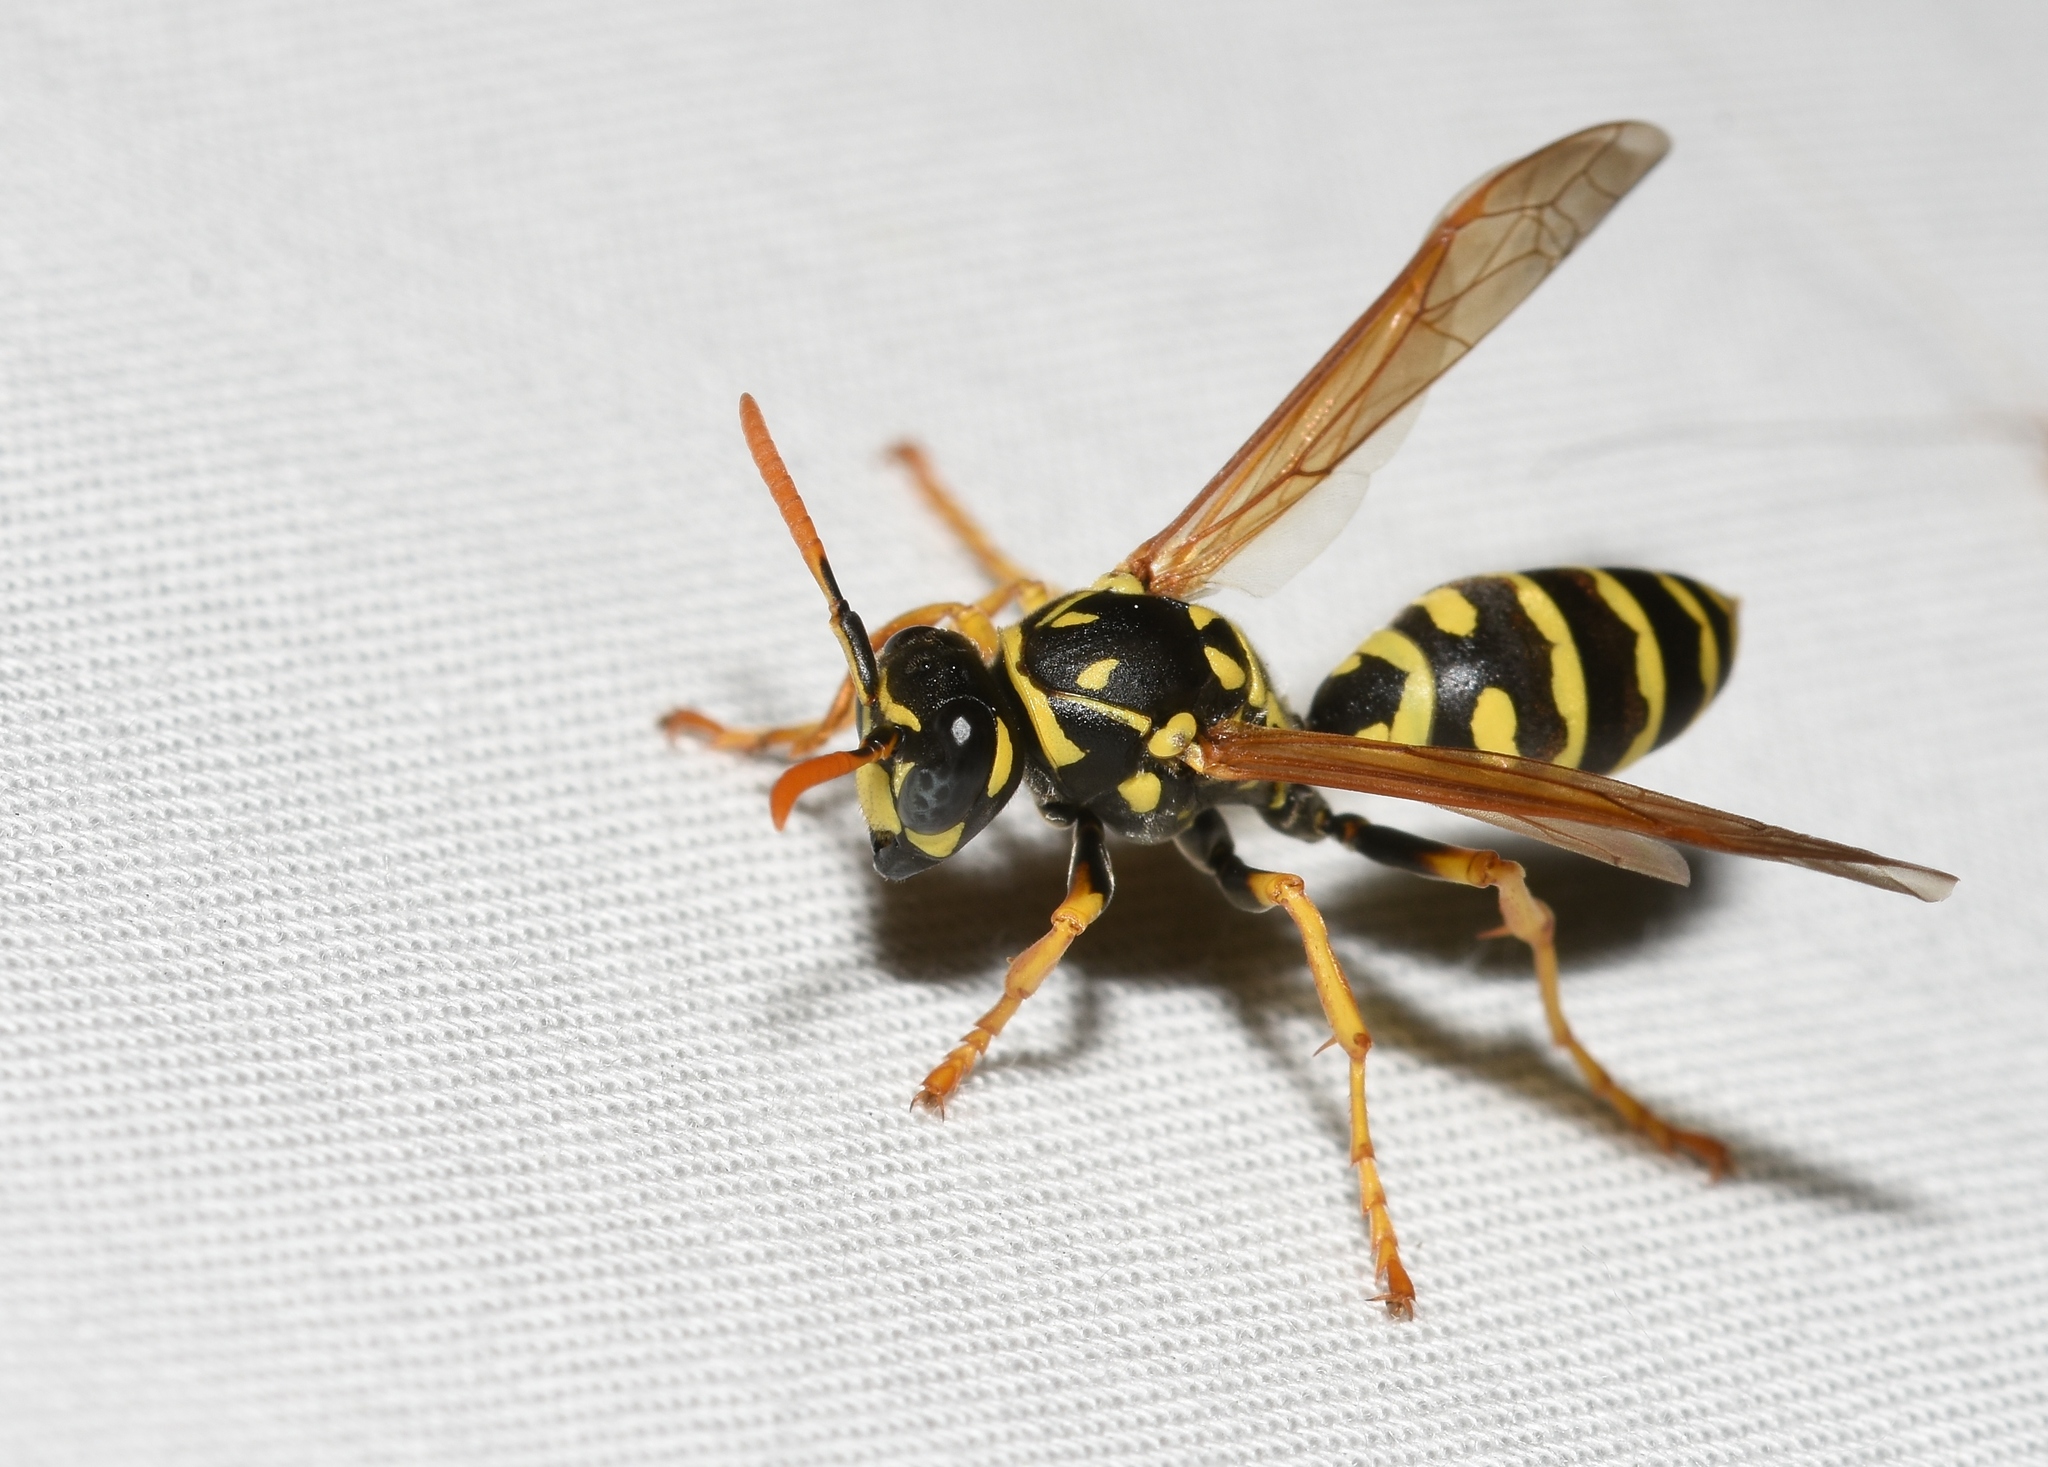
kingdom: Animalia
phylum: Arthropoda
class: Insecta
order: Hymenoptera
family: Eumenidae
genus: Polistes
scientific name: Polistes dominula
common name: Paper wasp
